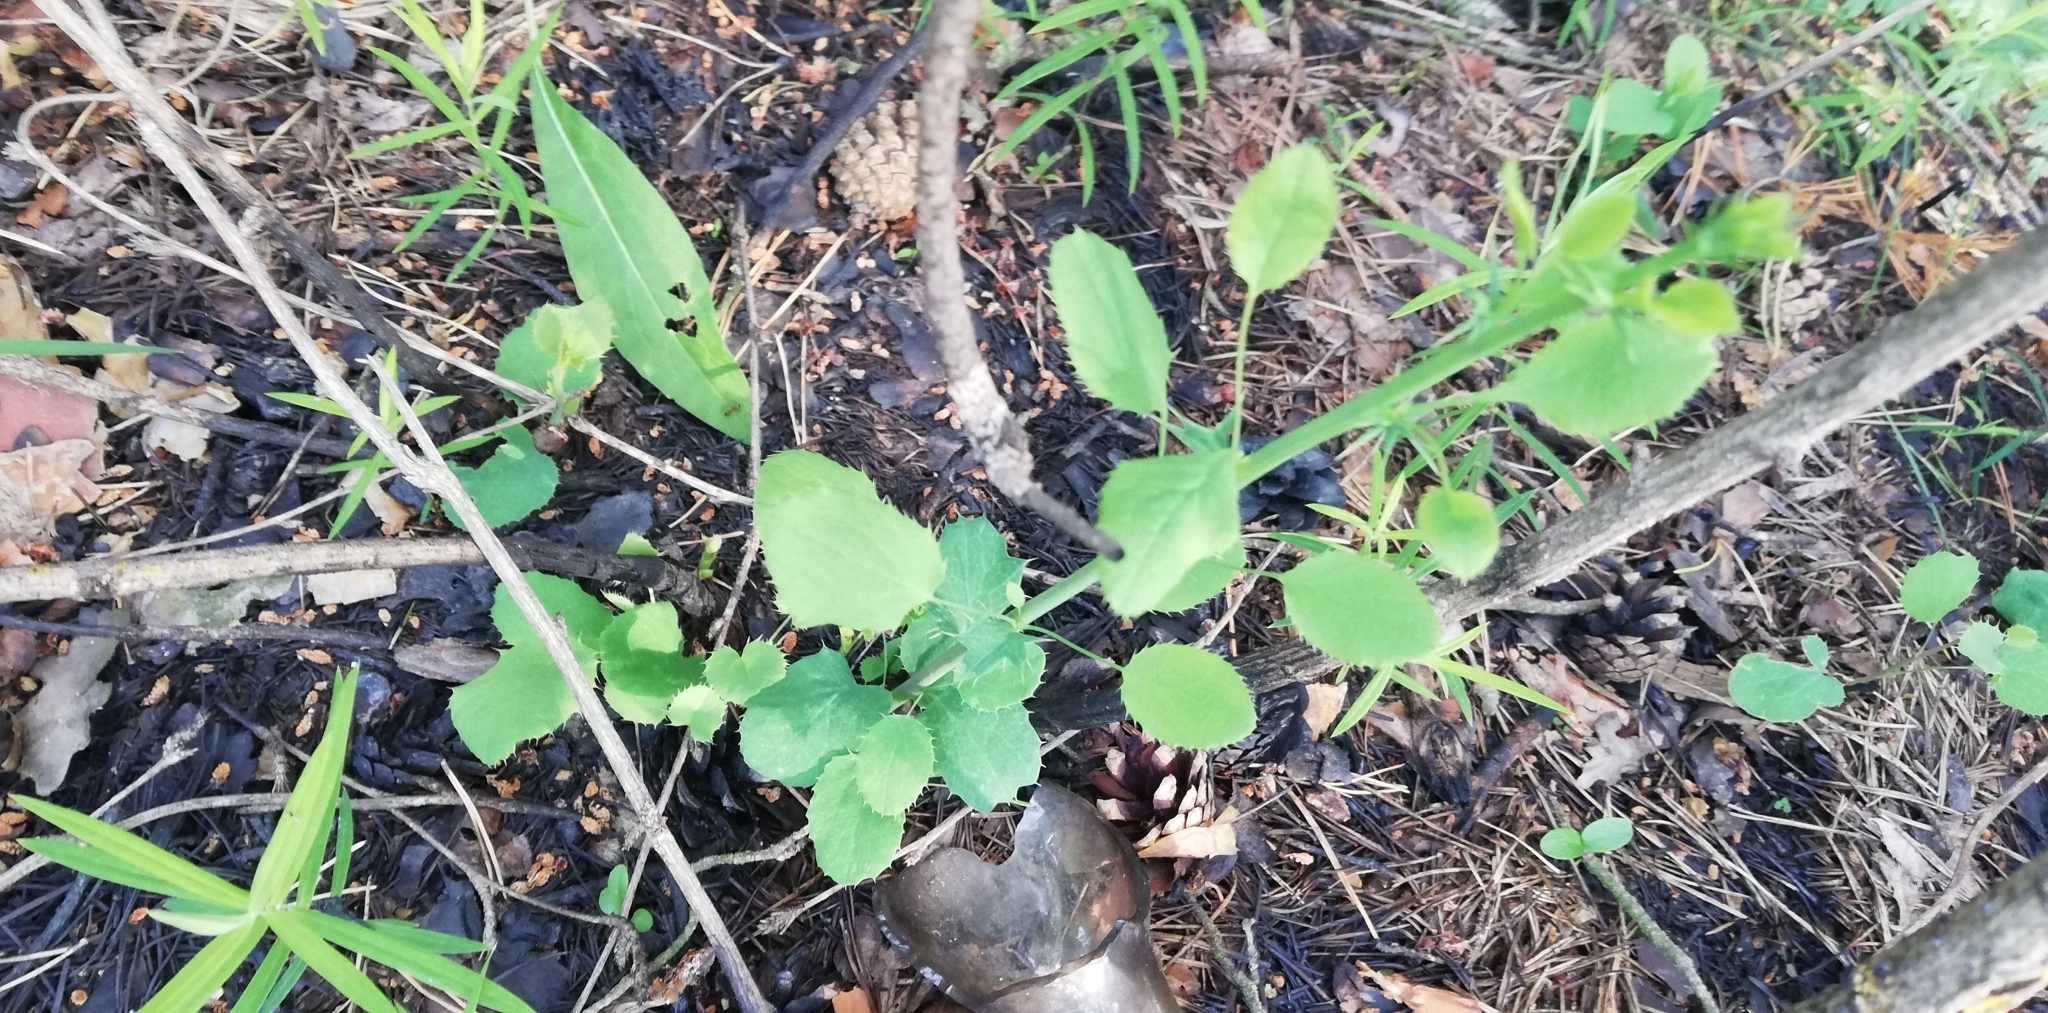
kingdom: Plantae
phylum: Tracheophyta
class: Magnoliopsida
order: Ranunculales
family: Berberidaceae
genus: Berberis
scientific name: Berberis vulgaris
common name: Barberry
